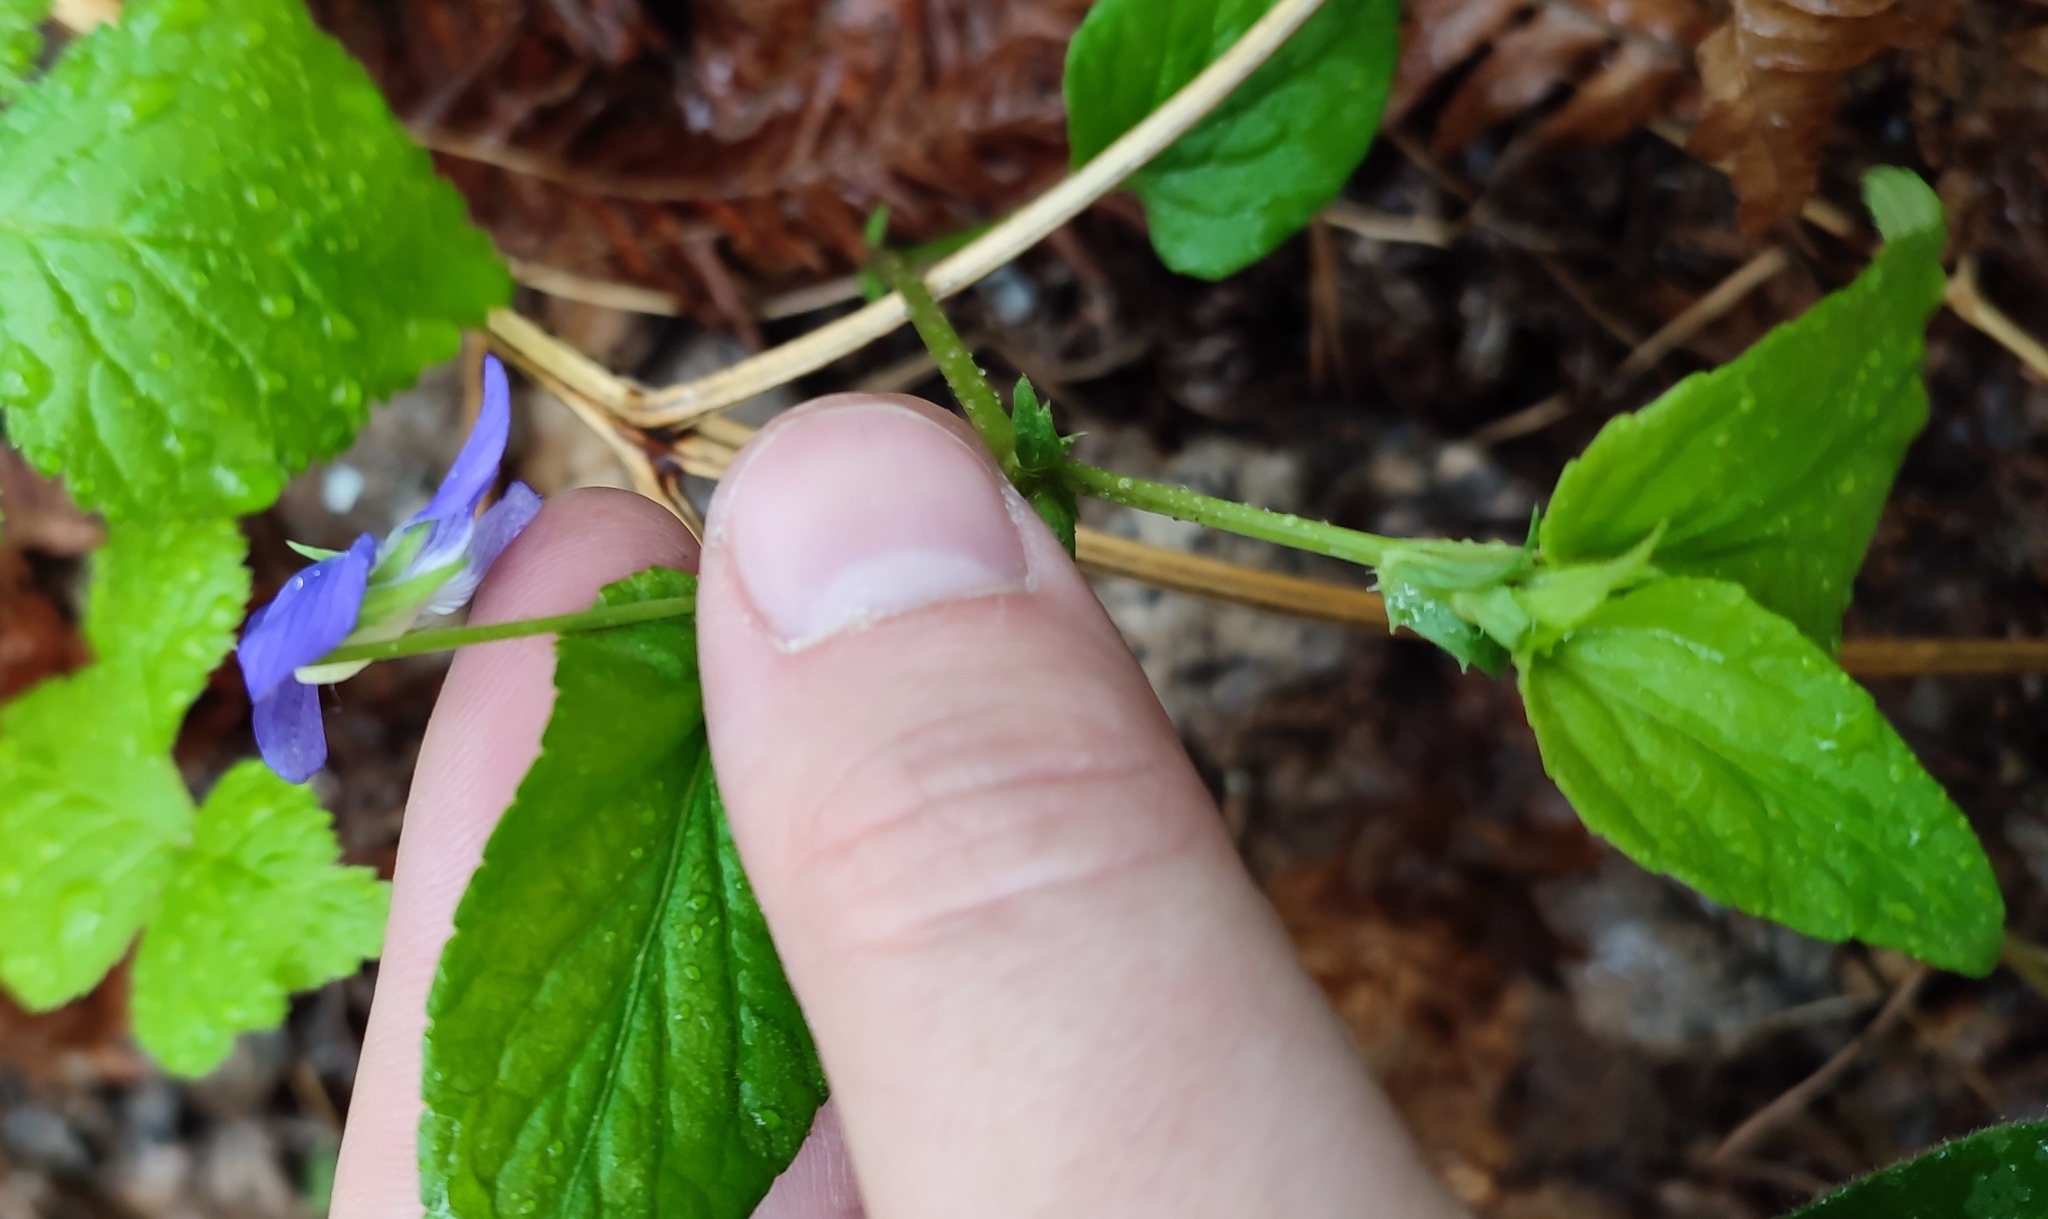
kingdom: Plantae
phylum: Tracheophyta
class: Magnoliopsida
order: Malpighiales
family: Violaceae
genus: Viola
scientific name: Viola
